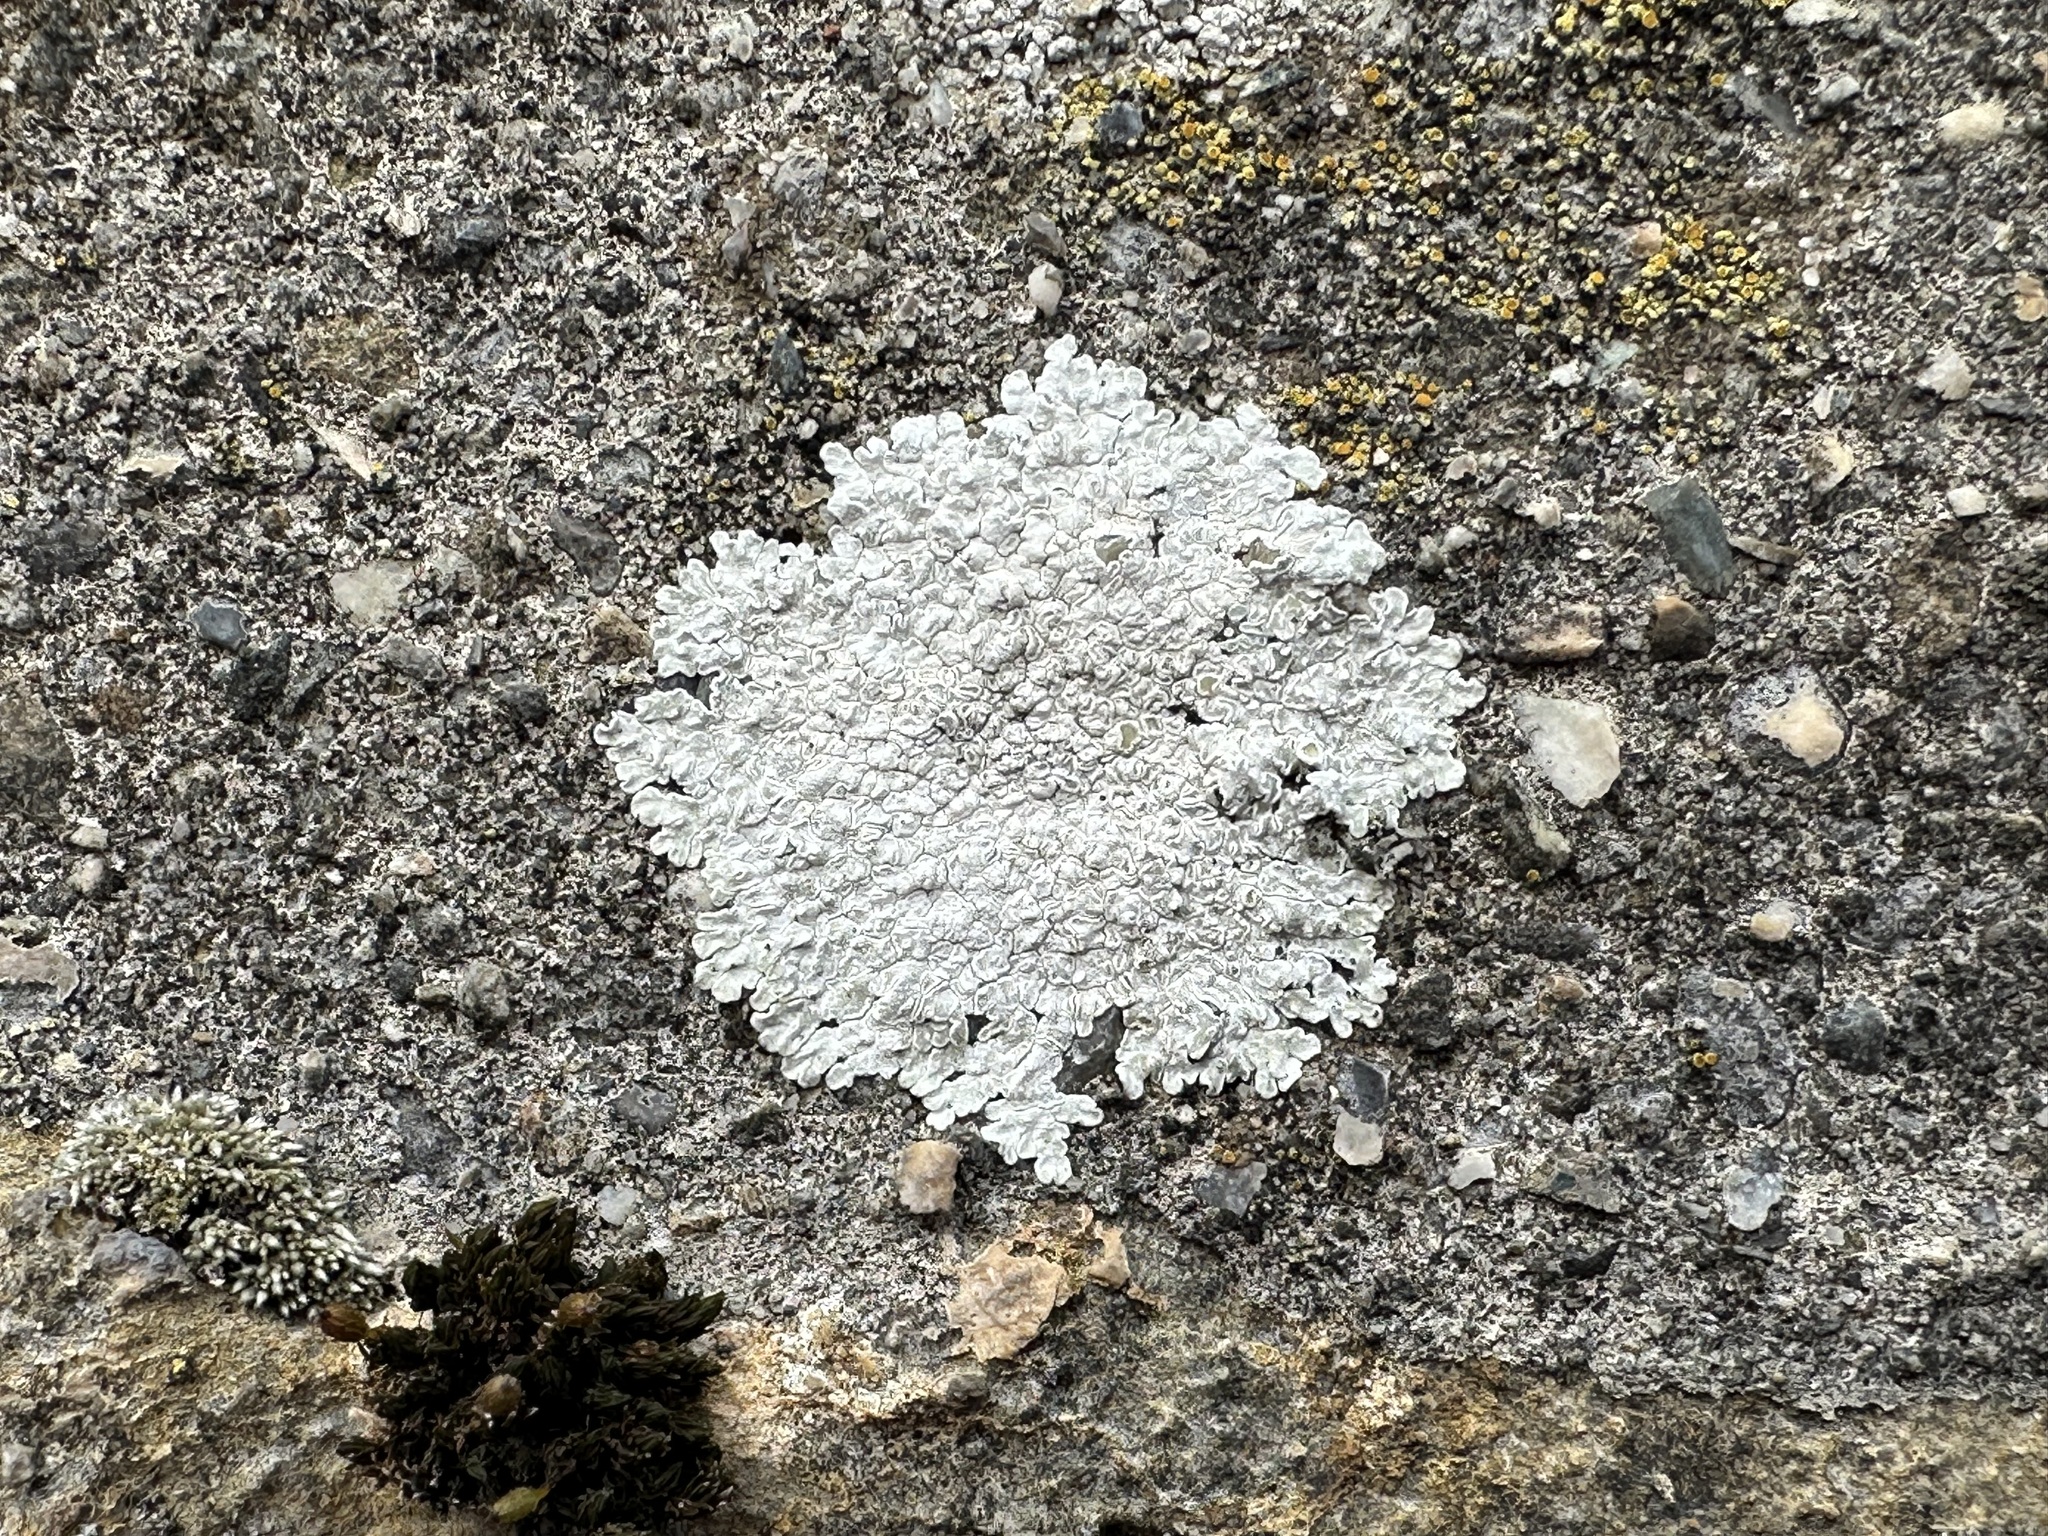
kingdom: Fungi
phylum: Ascomycota
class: Lecanoromycetes
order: Lecanorales
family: Lecanoraceae
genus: Protoparmeliopsis
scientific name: Protoparmeliopsis muralis
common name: Stonewall rim lichen
